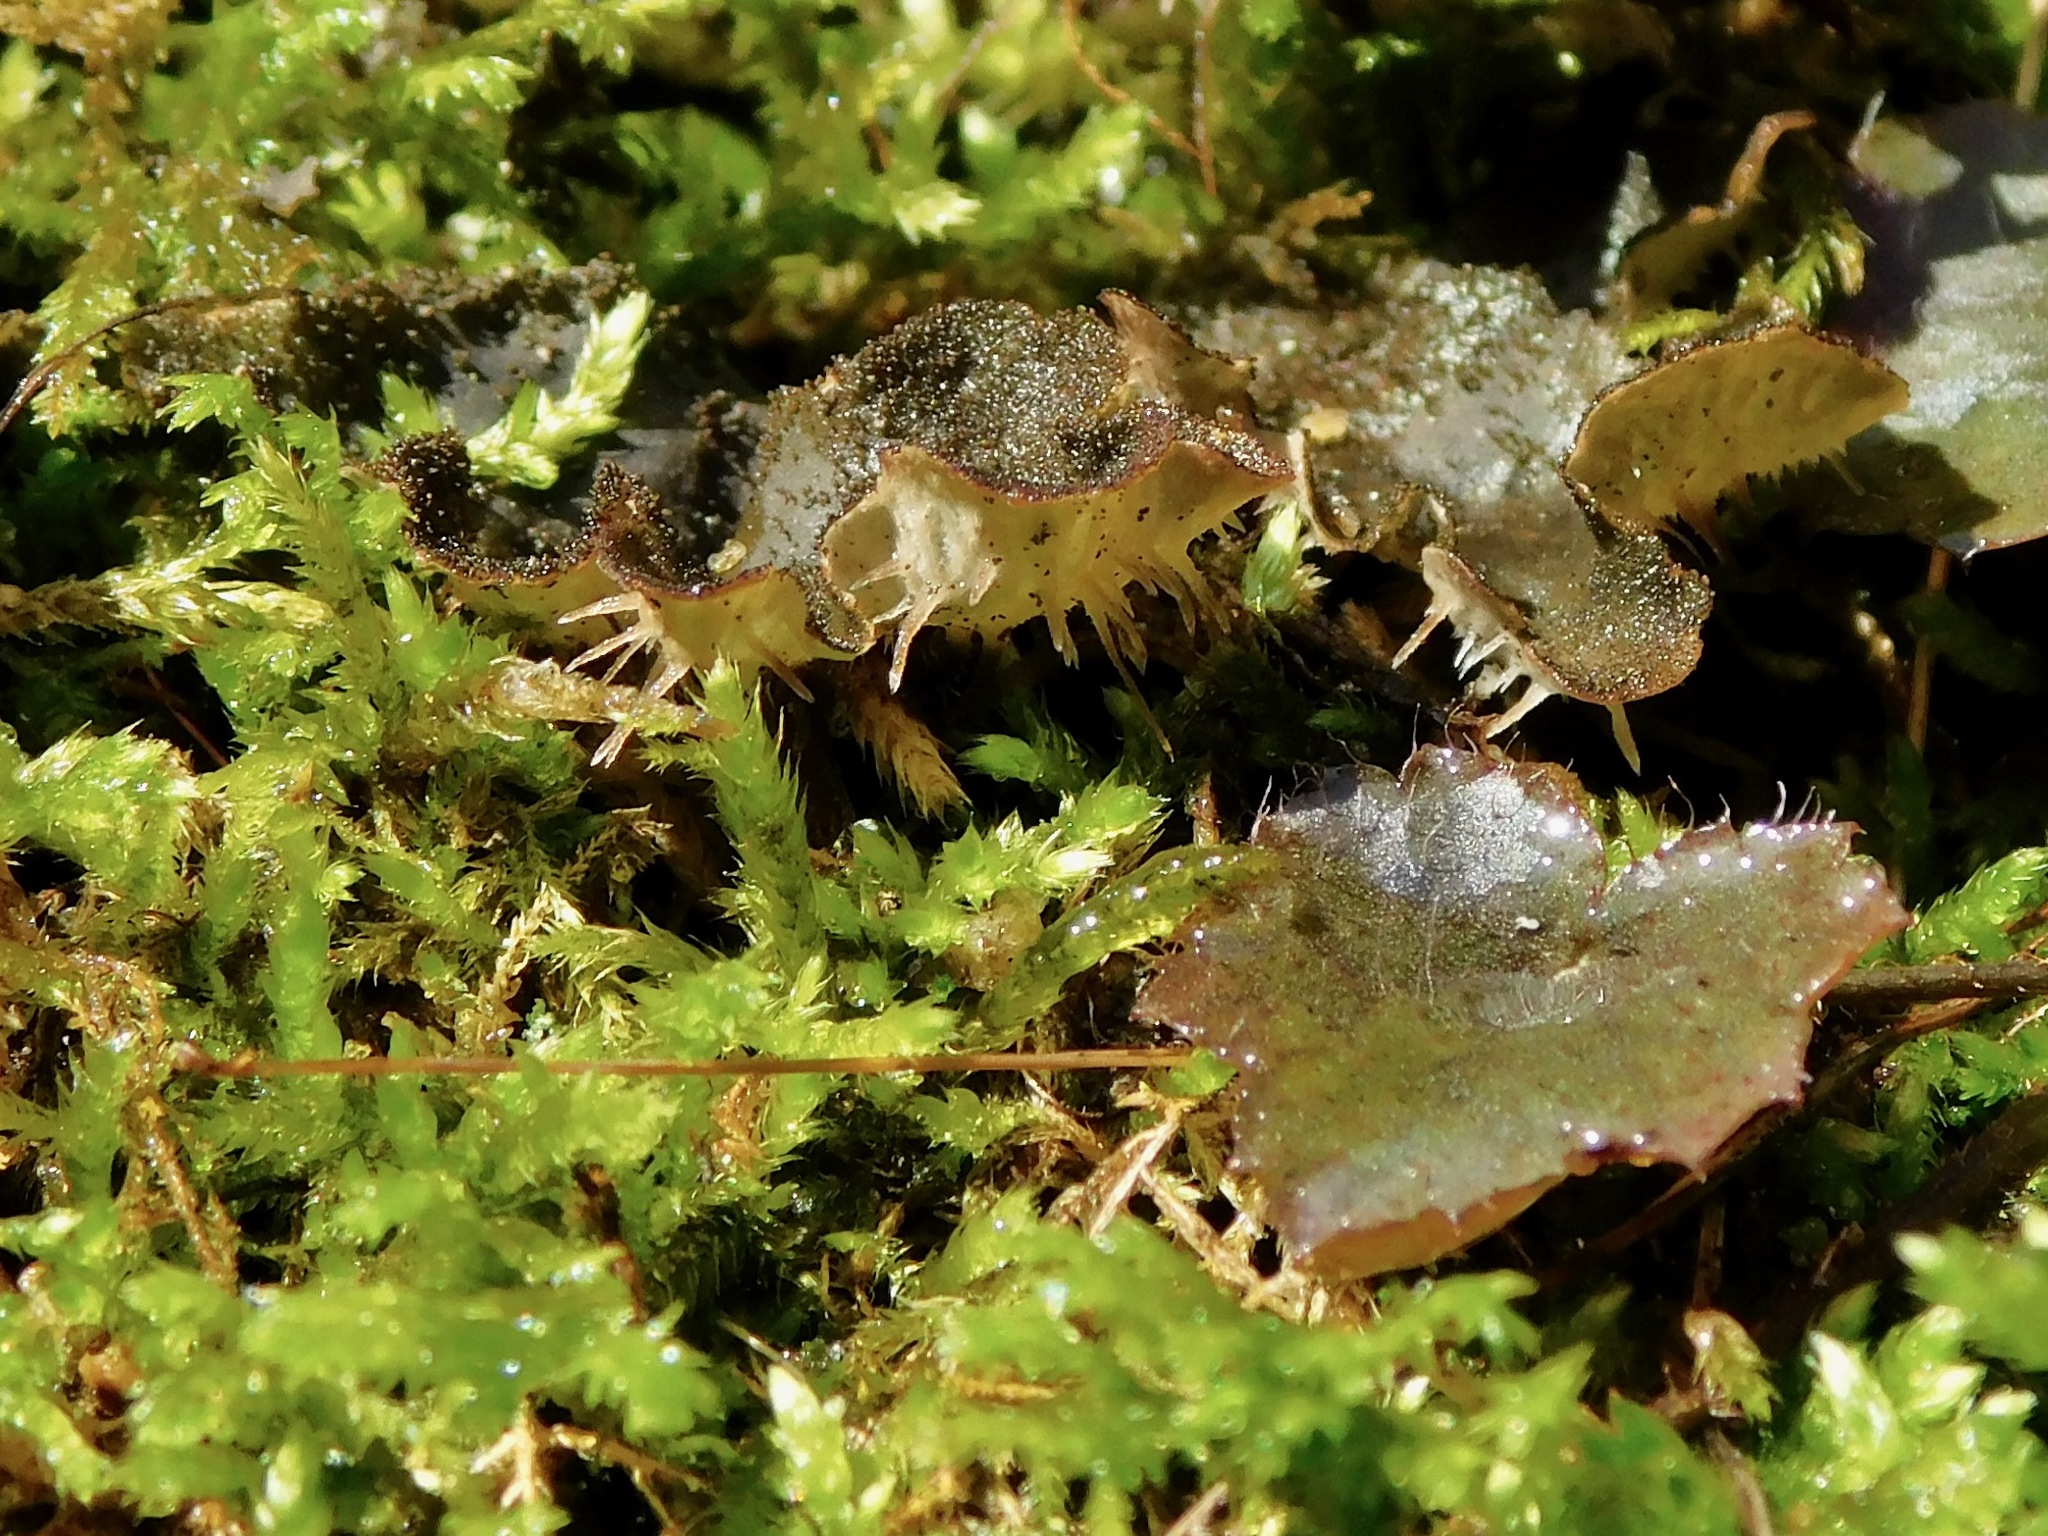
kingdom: Fungi
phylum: Ascomycota
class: Lecanoromycetes
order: Peltigerales
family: Peltigeraceae
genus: Peltigera
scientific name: Peltigera evansiana
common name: Peppered pelt lichen
